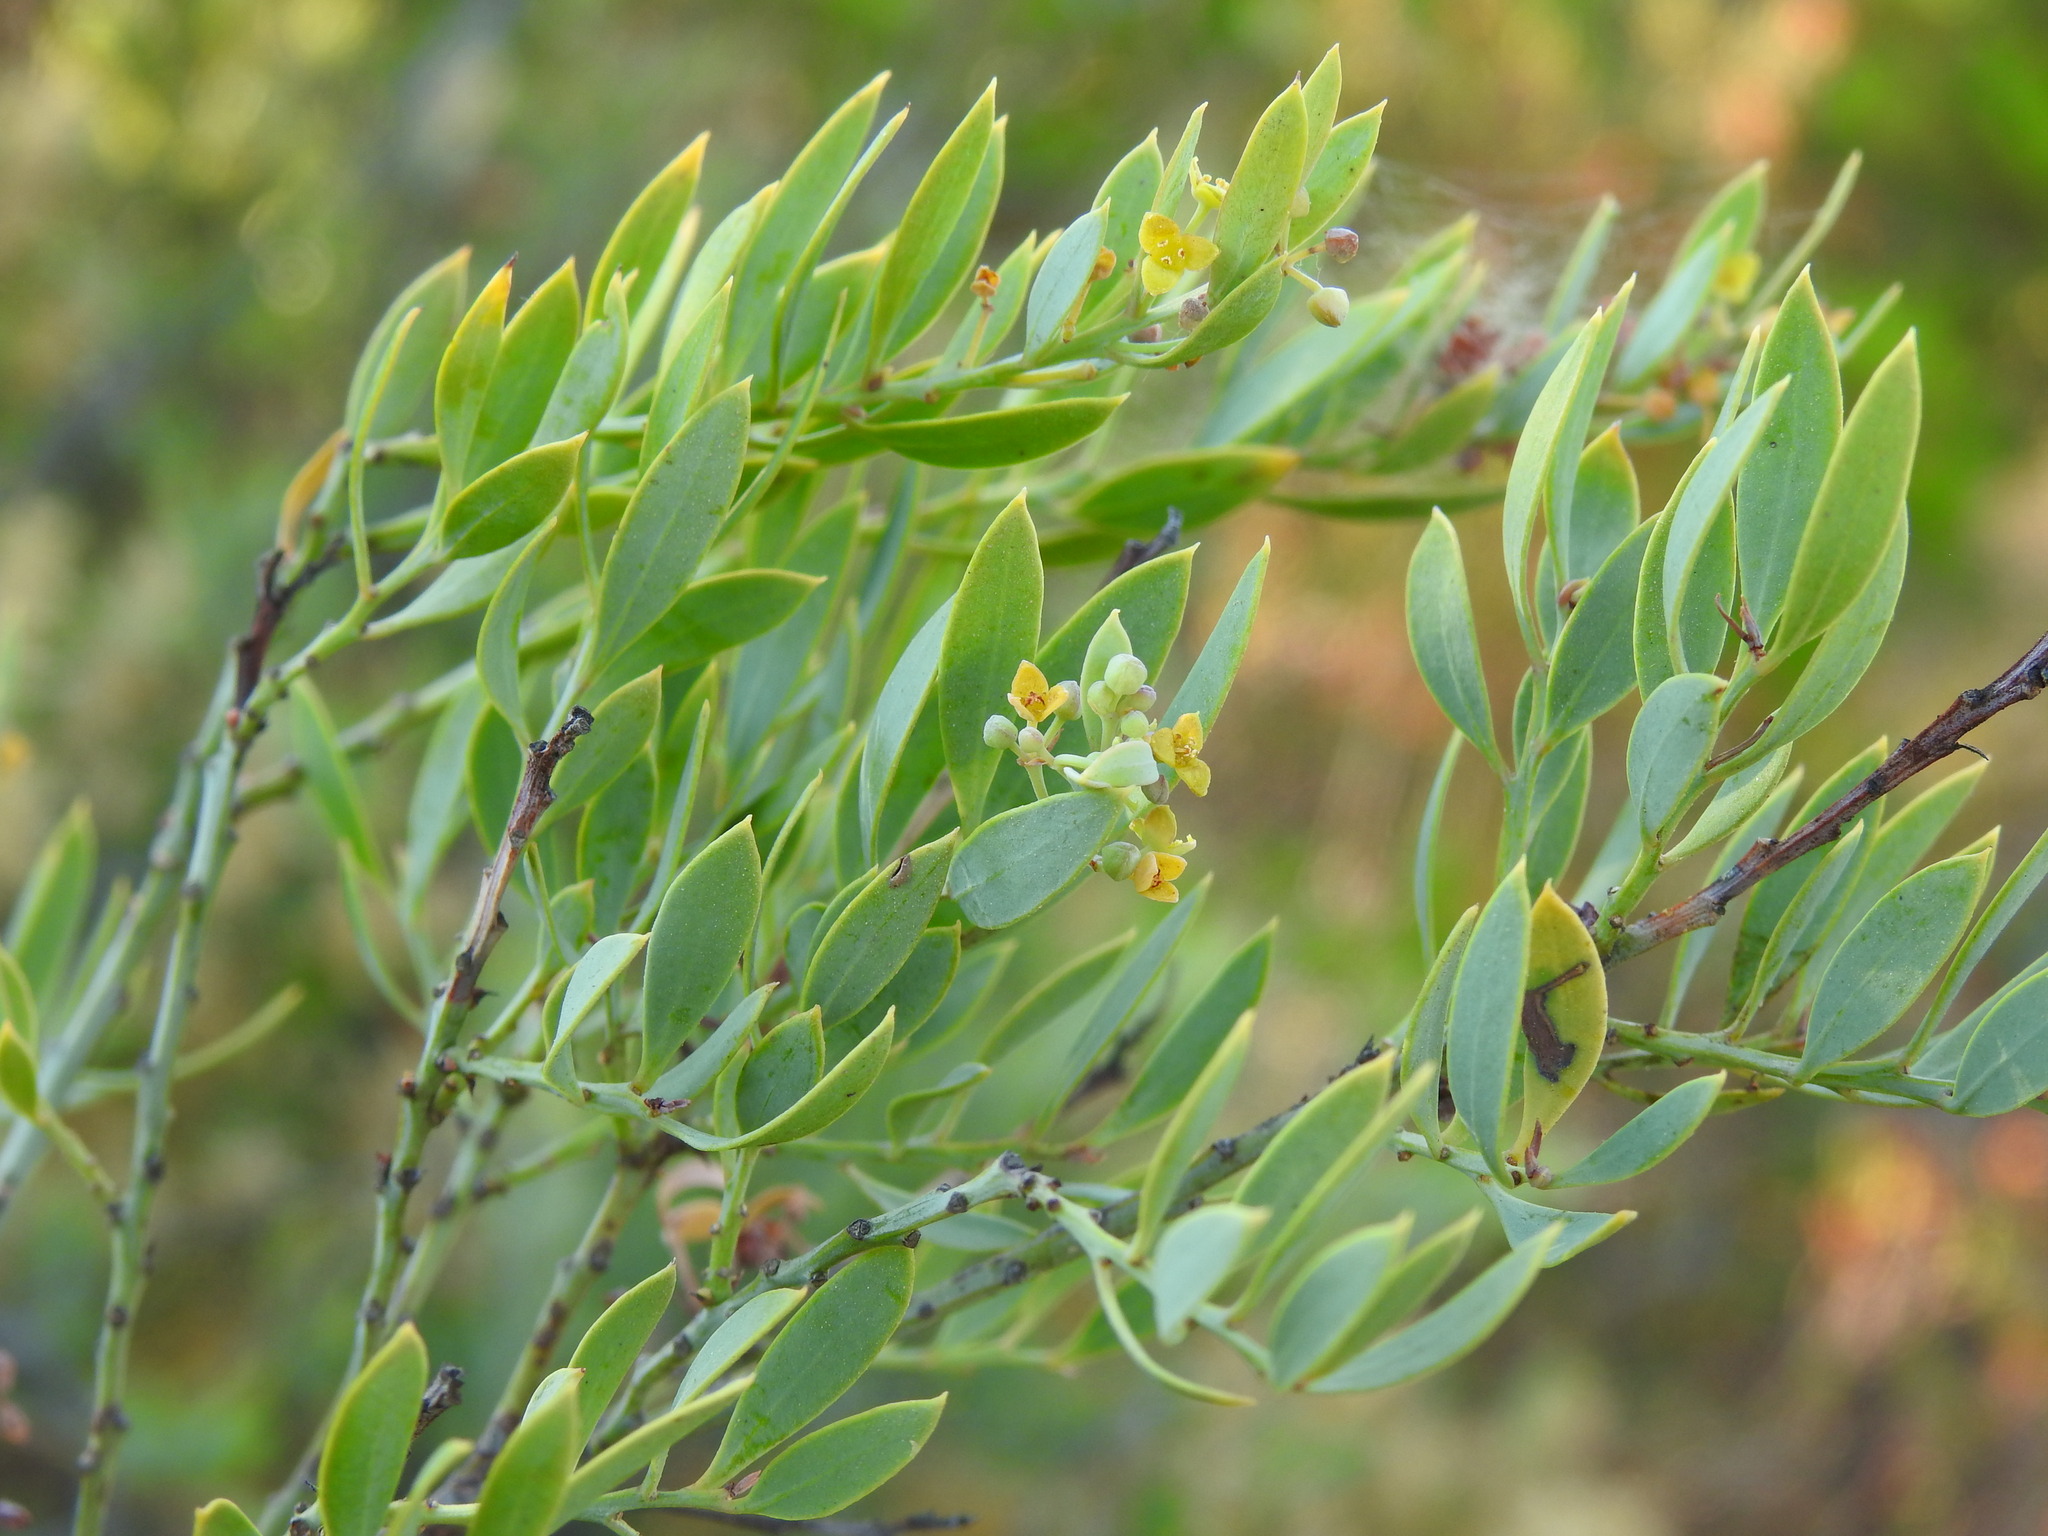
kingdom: Plantae
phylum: Tracheophyta
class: Magnoliopsida
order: Santalales
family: Santalaceae
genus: Osyris
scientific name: Osyris lanceolata
